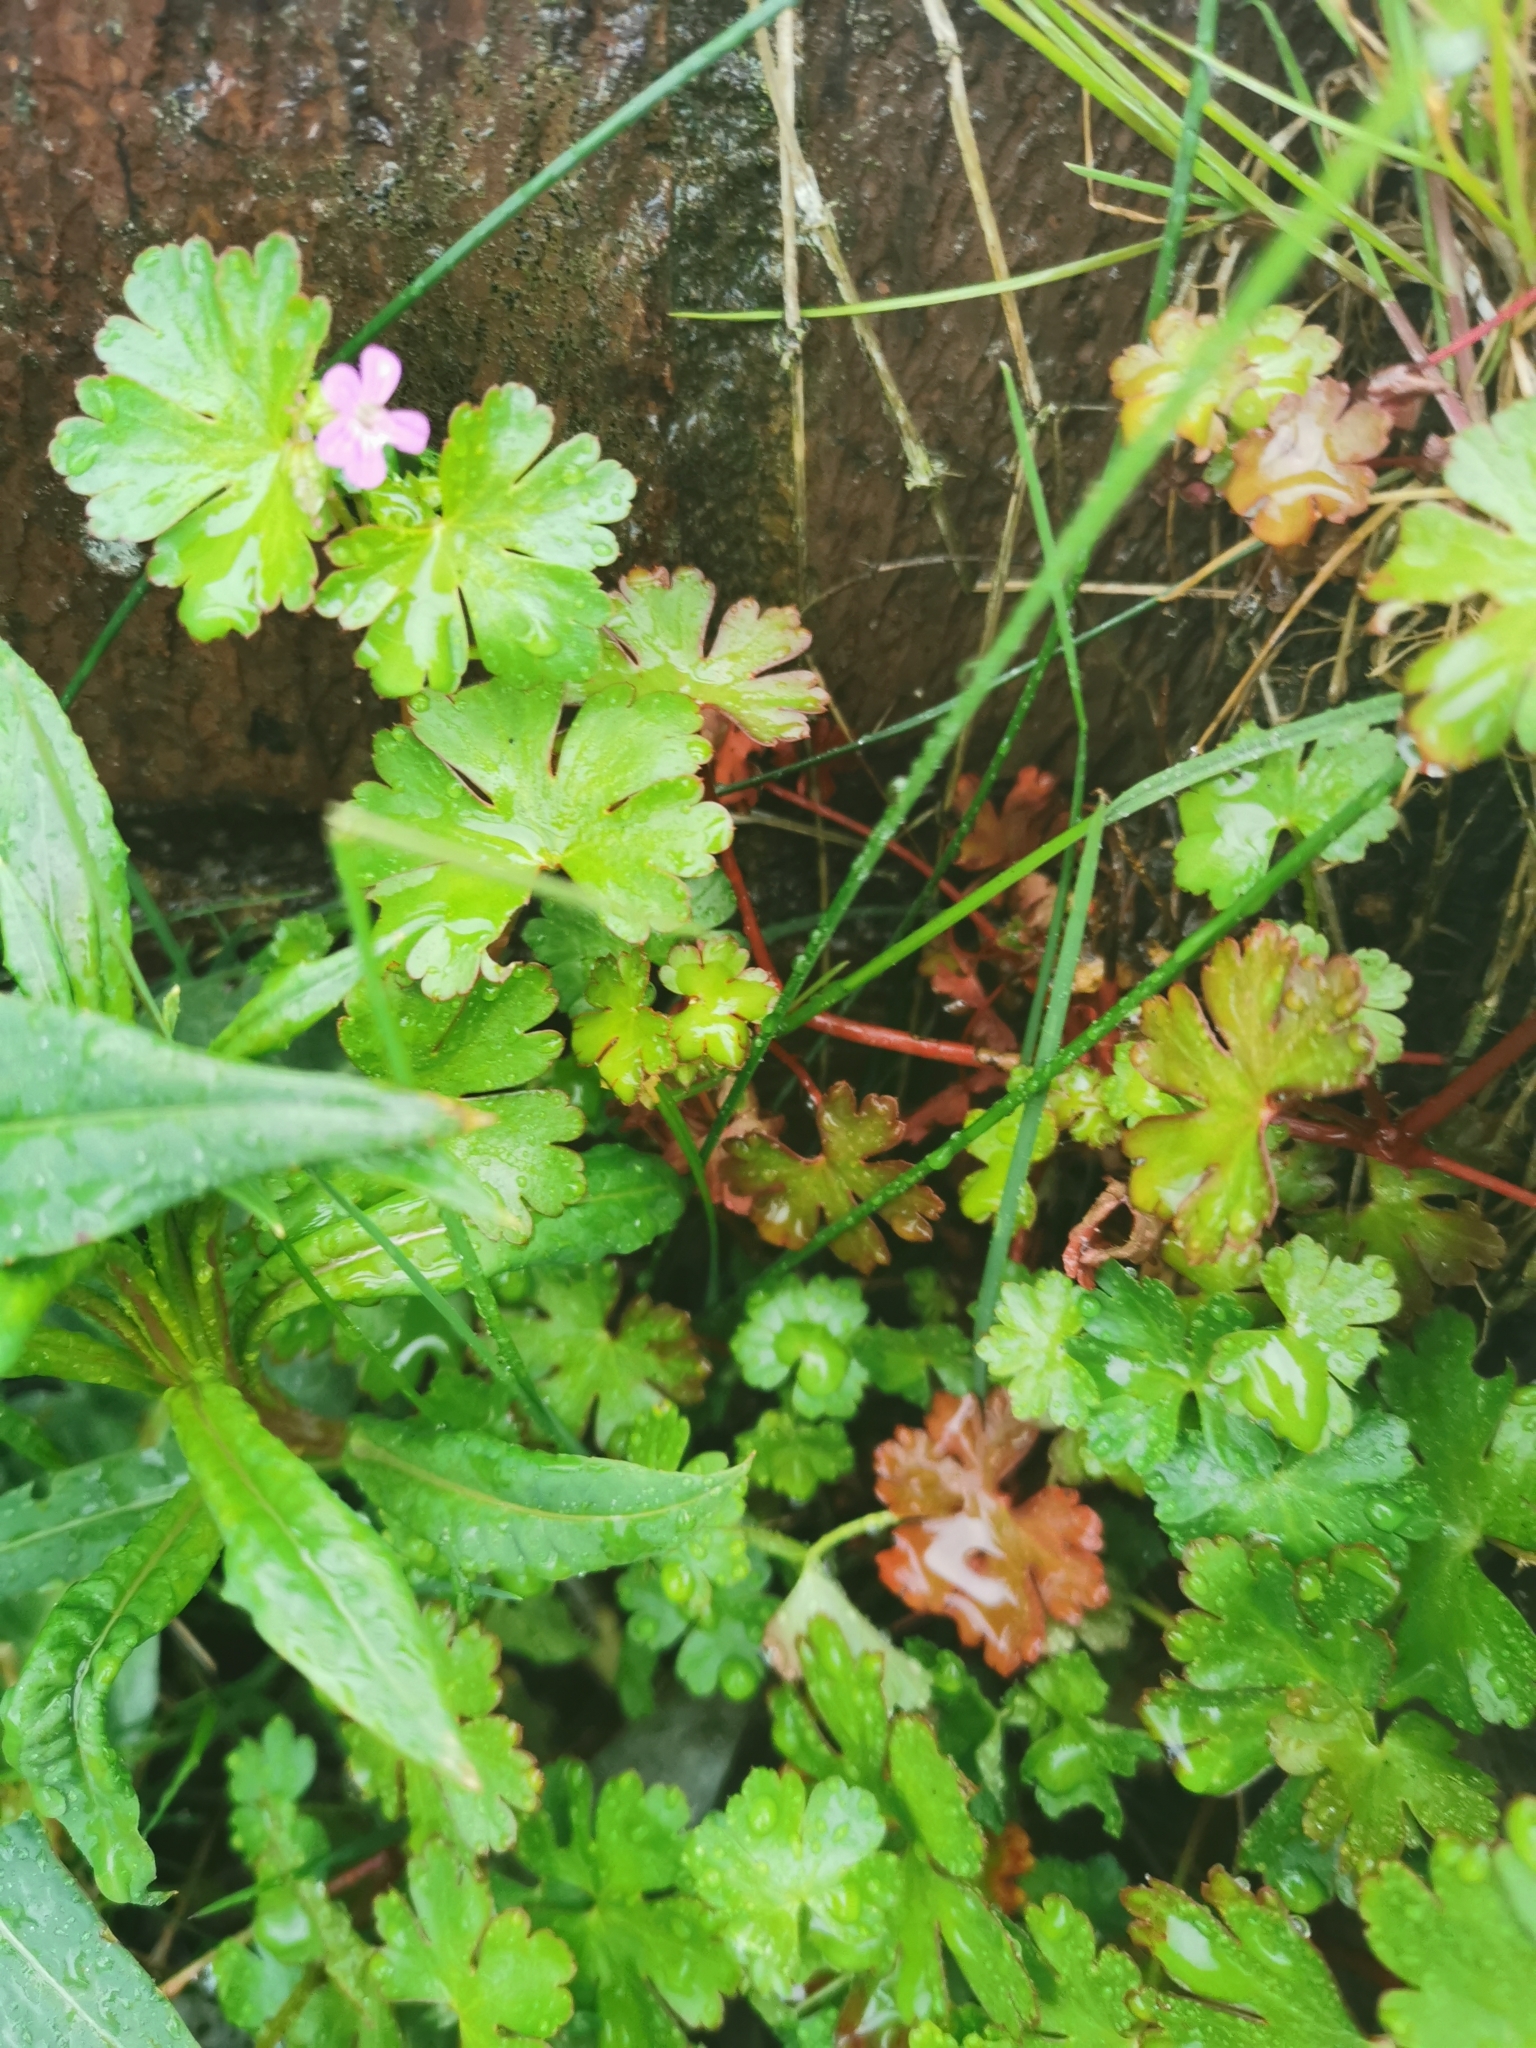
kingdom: Plantae
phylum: Tracheophyta
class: Magnoliopsida
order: Geraniales
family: Geraniaceae
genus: Geranium
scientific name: Geranium lucidum
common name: Shining crane's-bill
